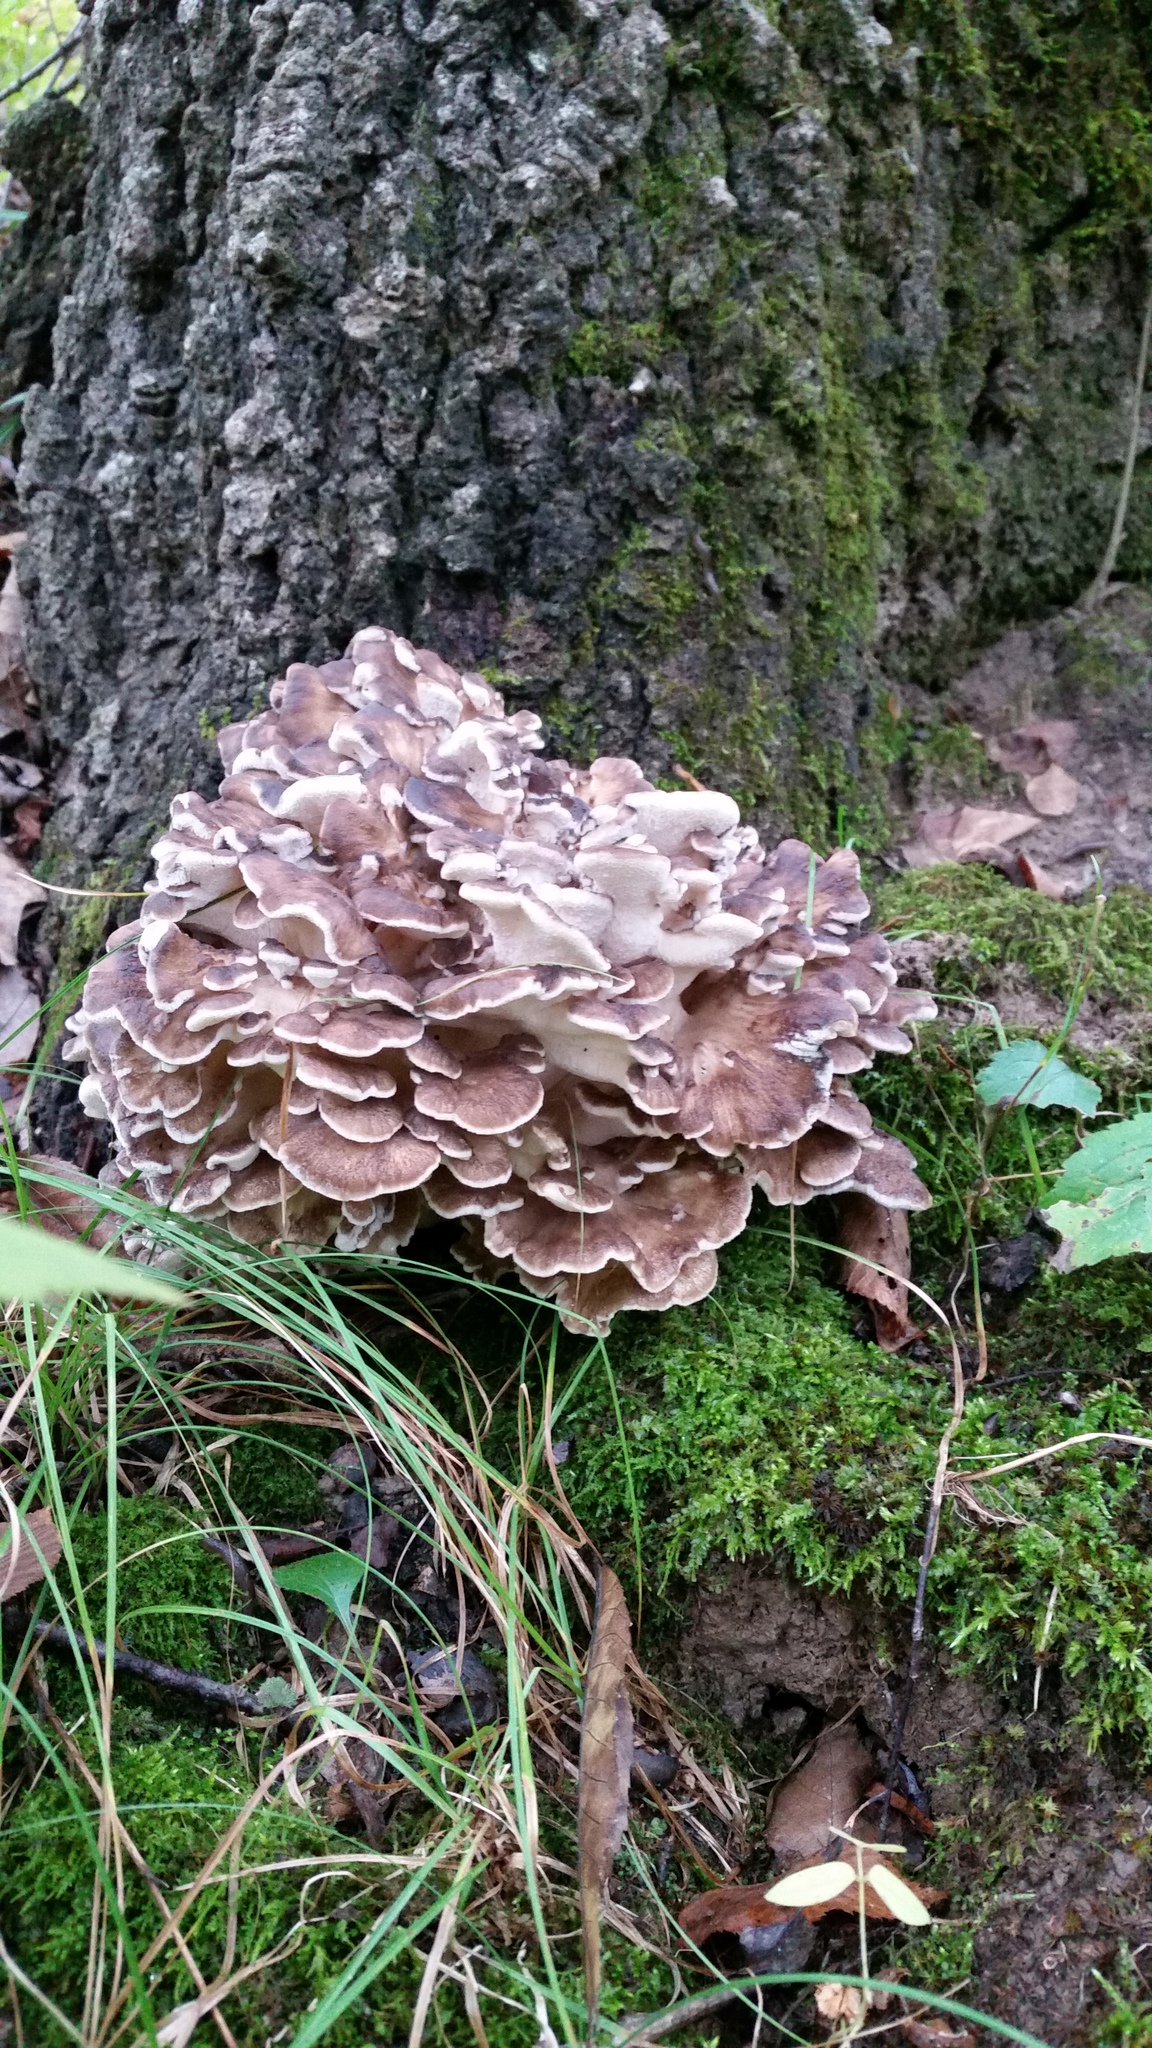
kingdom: Fungi
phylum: Basidiomycota
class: Agaricomycetes
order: Polyporales
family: Grifolaceae
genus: Grifola
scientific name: Grifola frondosa
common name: Hen of the woods
